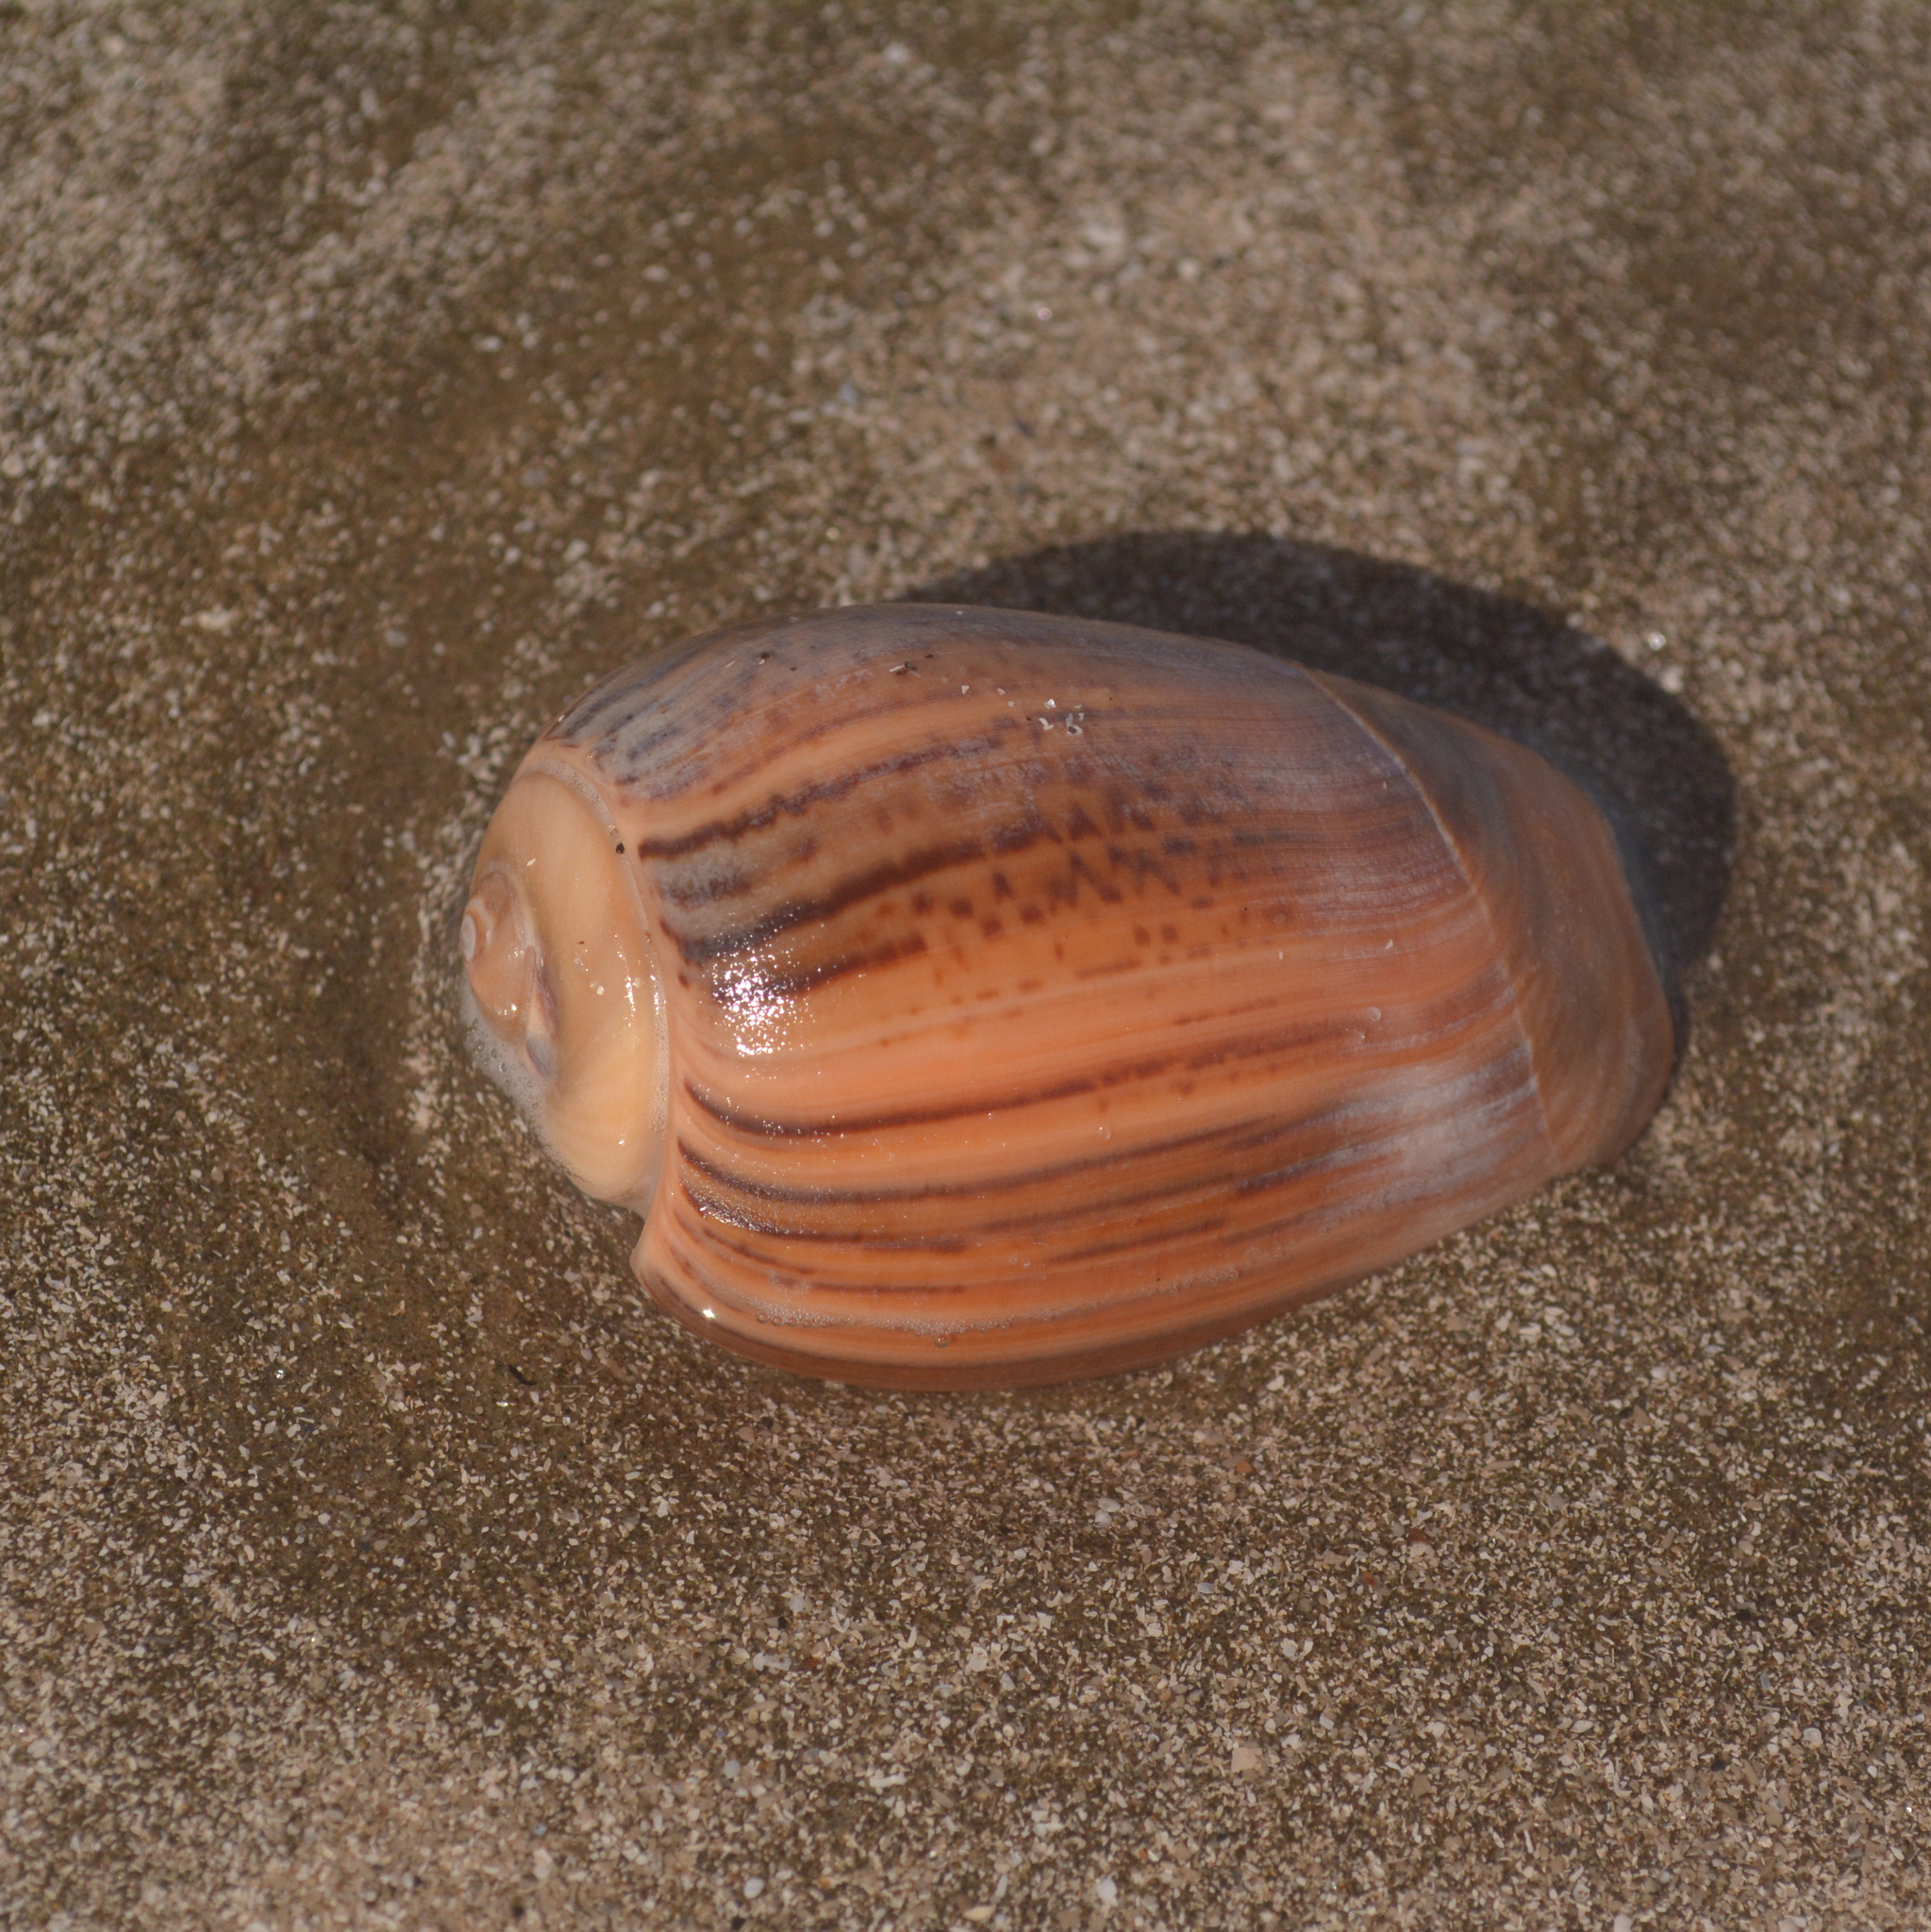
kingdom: Animalia
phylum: Mollusca
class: Gastropoda
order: Neogastropoda
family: Olividae
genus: Olivancillaria
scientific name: Olivancillaria urceus
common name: Bear ancilla
